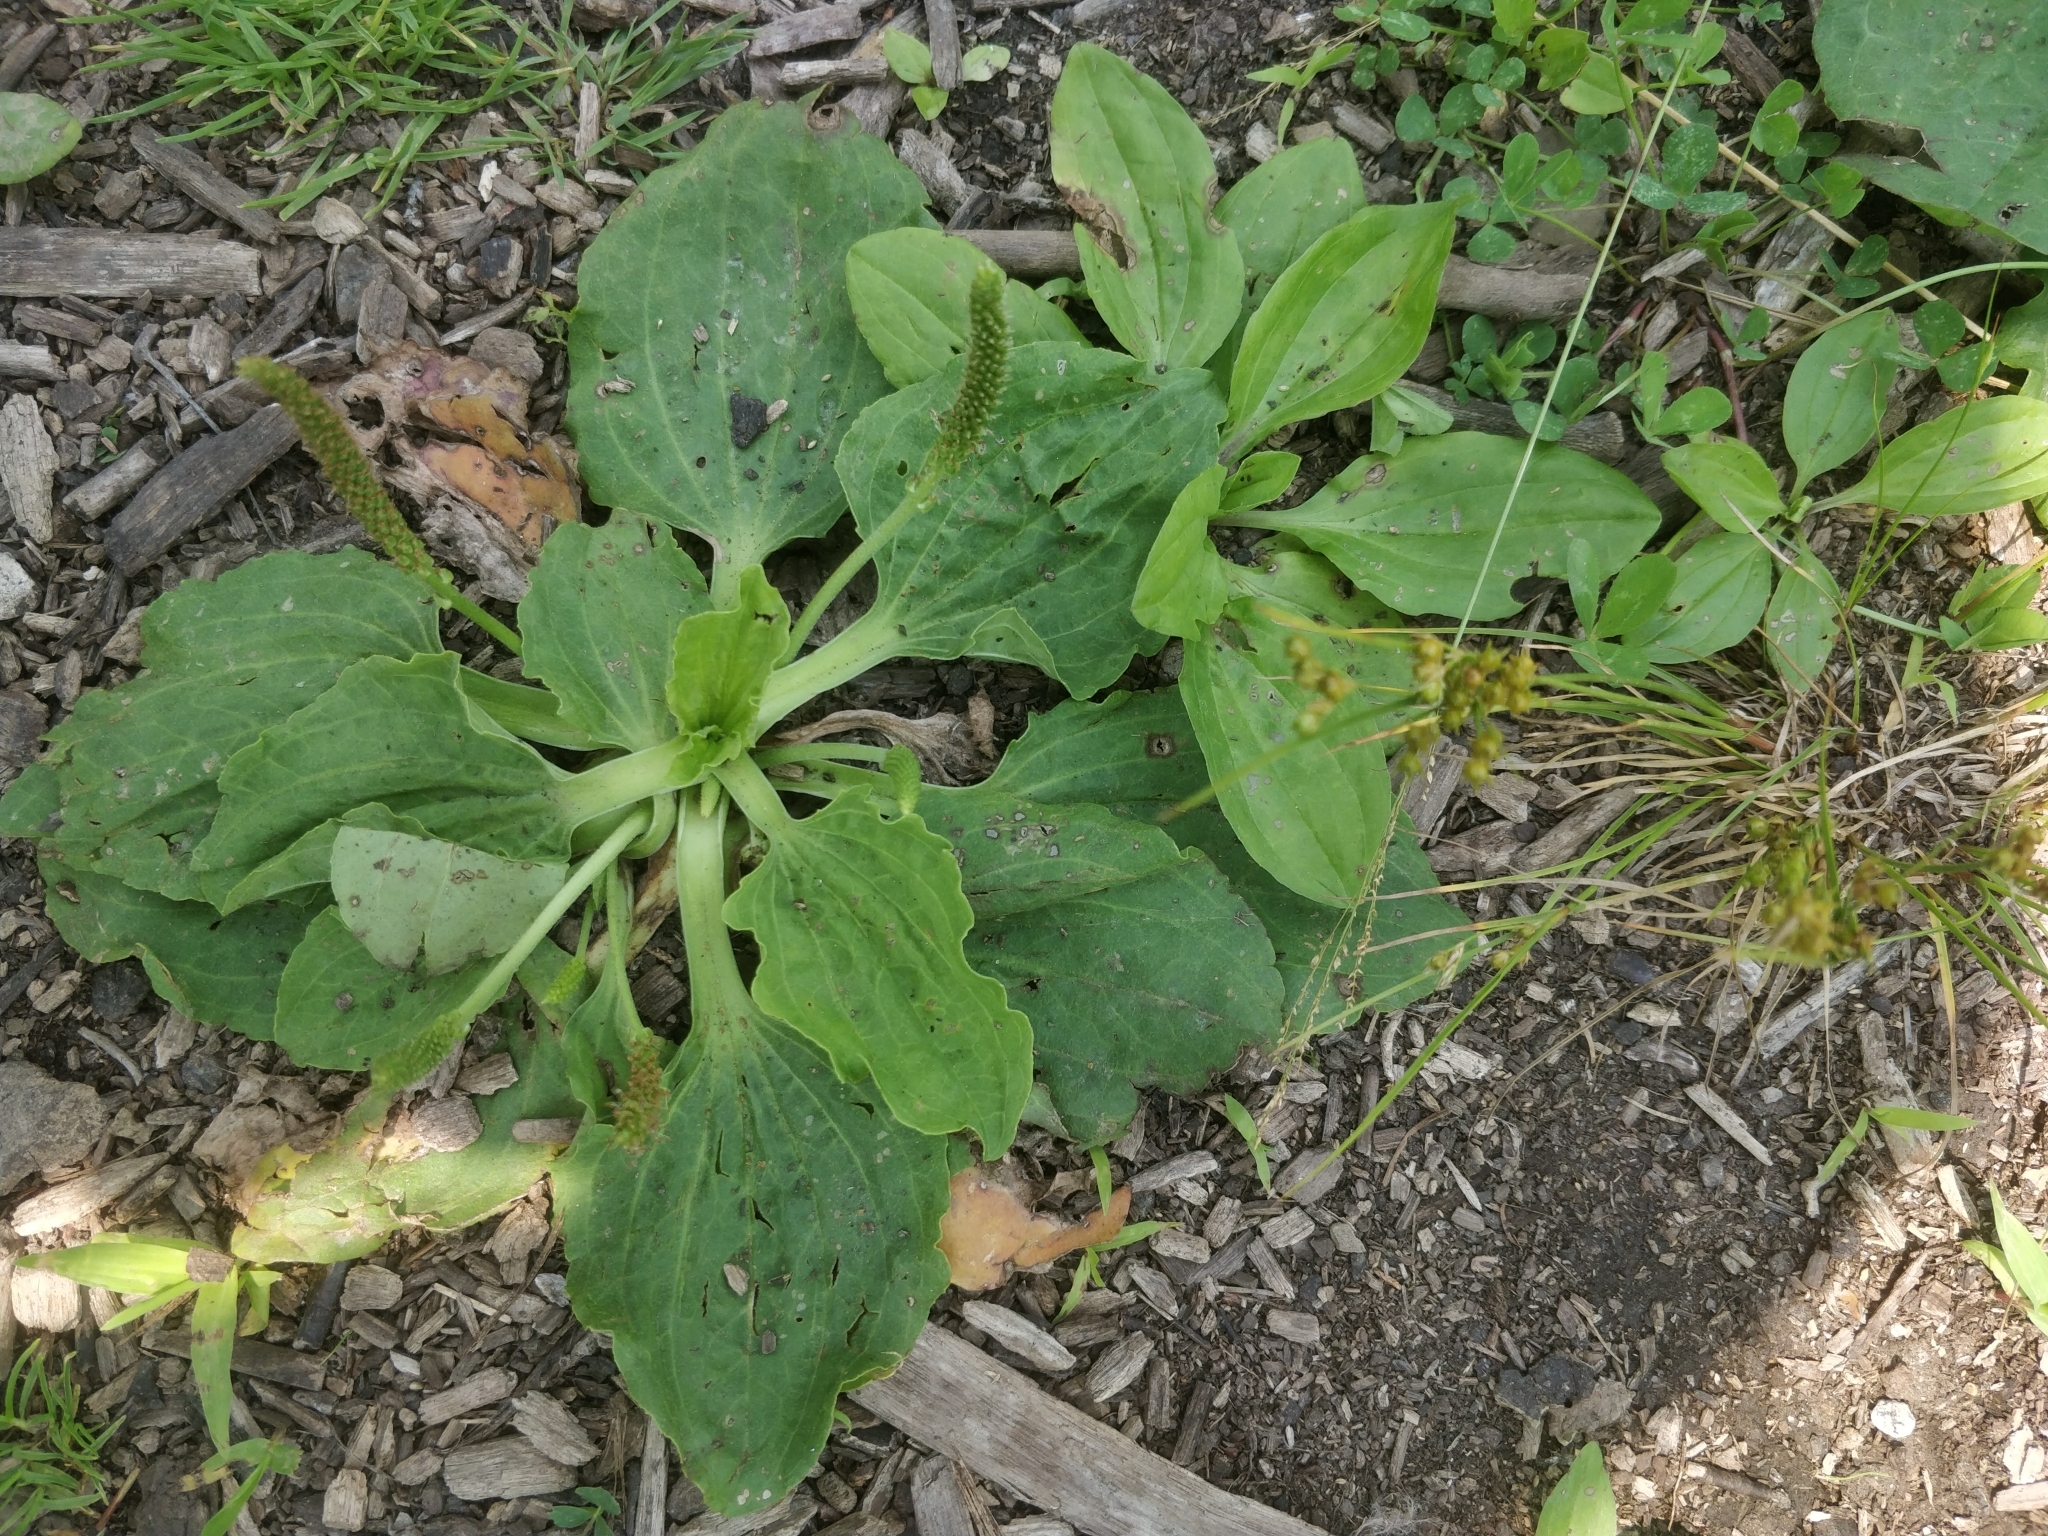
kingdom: Plantae
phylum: Tracheophyta
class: Magnoliopsida
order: Lamiales
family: Plantaginaceae
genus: Plantago
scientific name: Plantago major
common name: Common plantain
